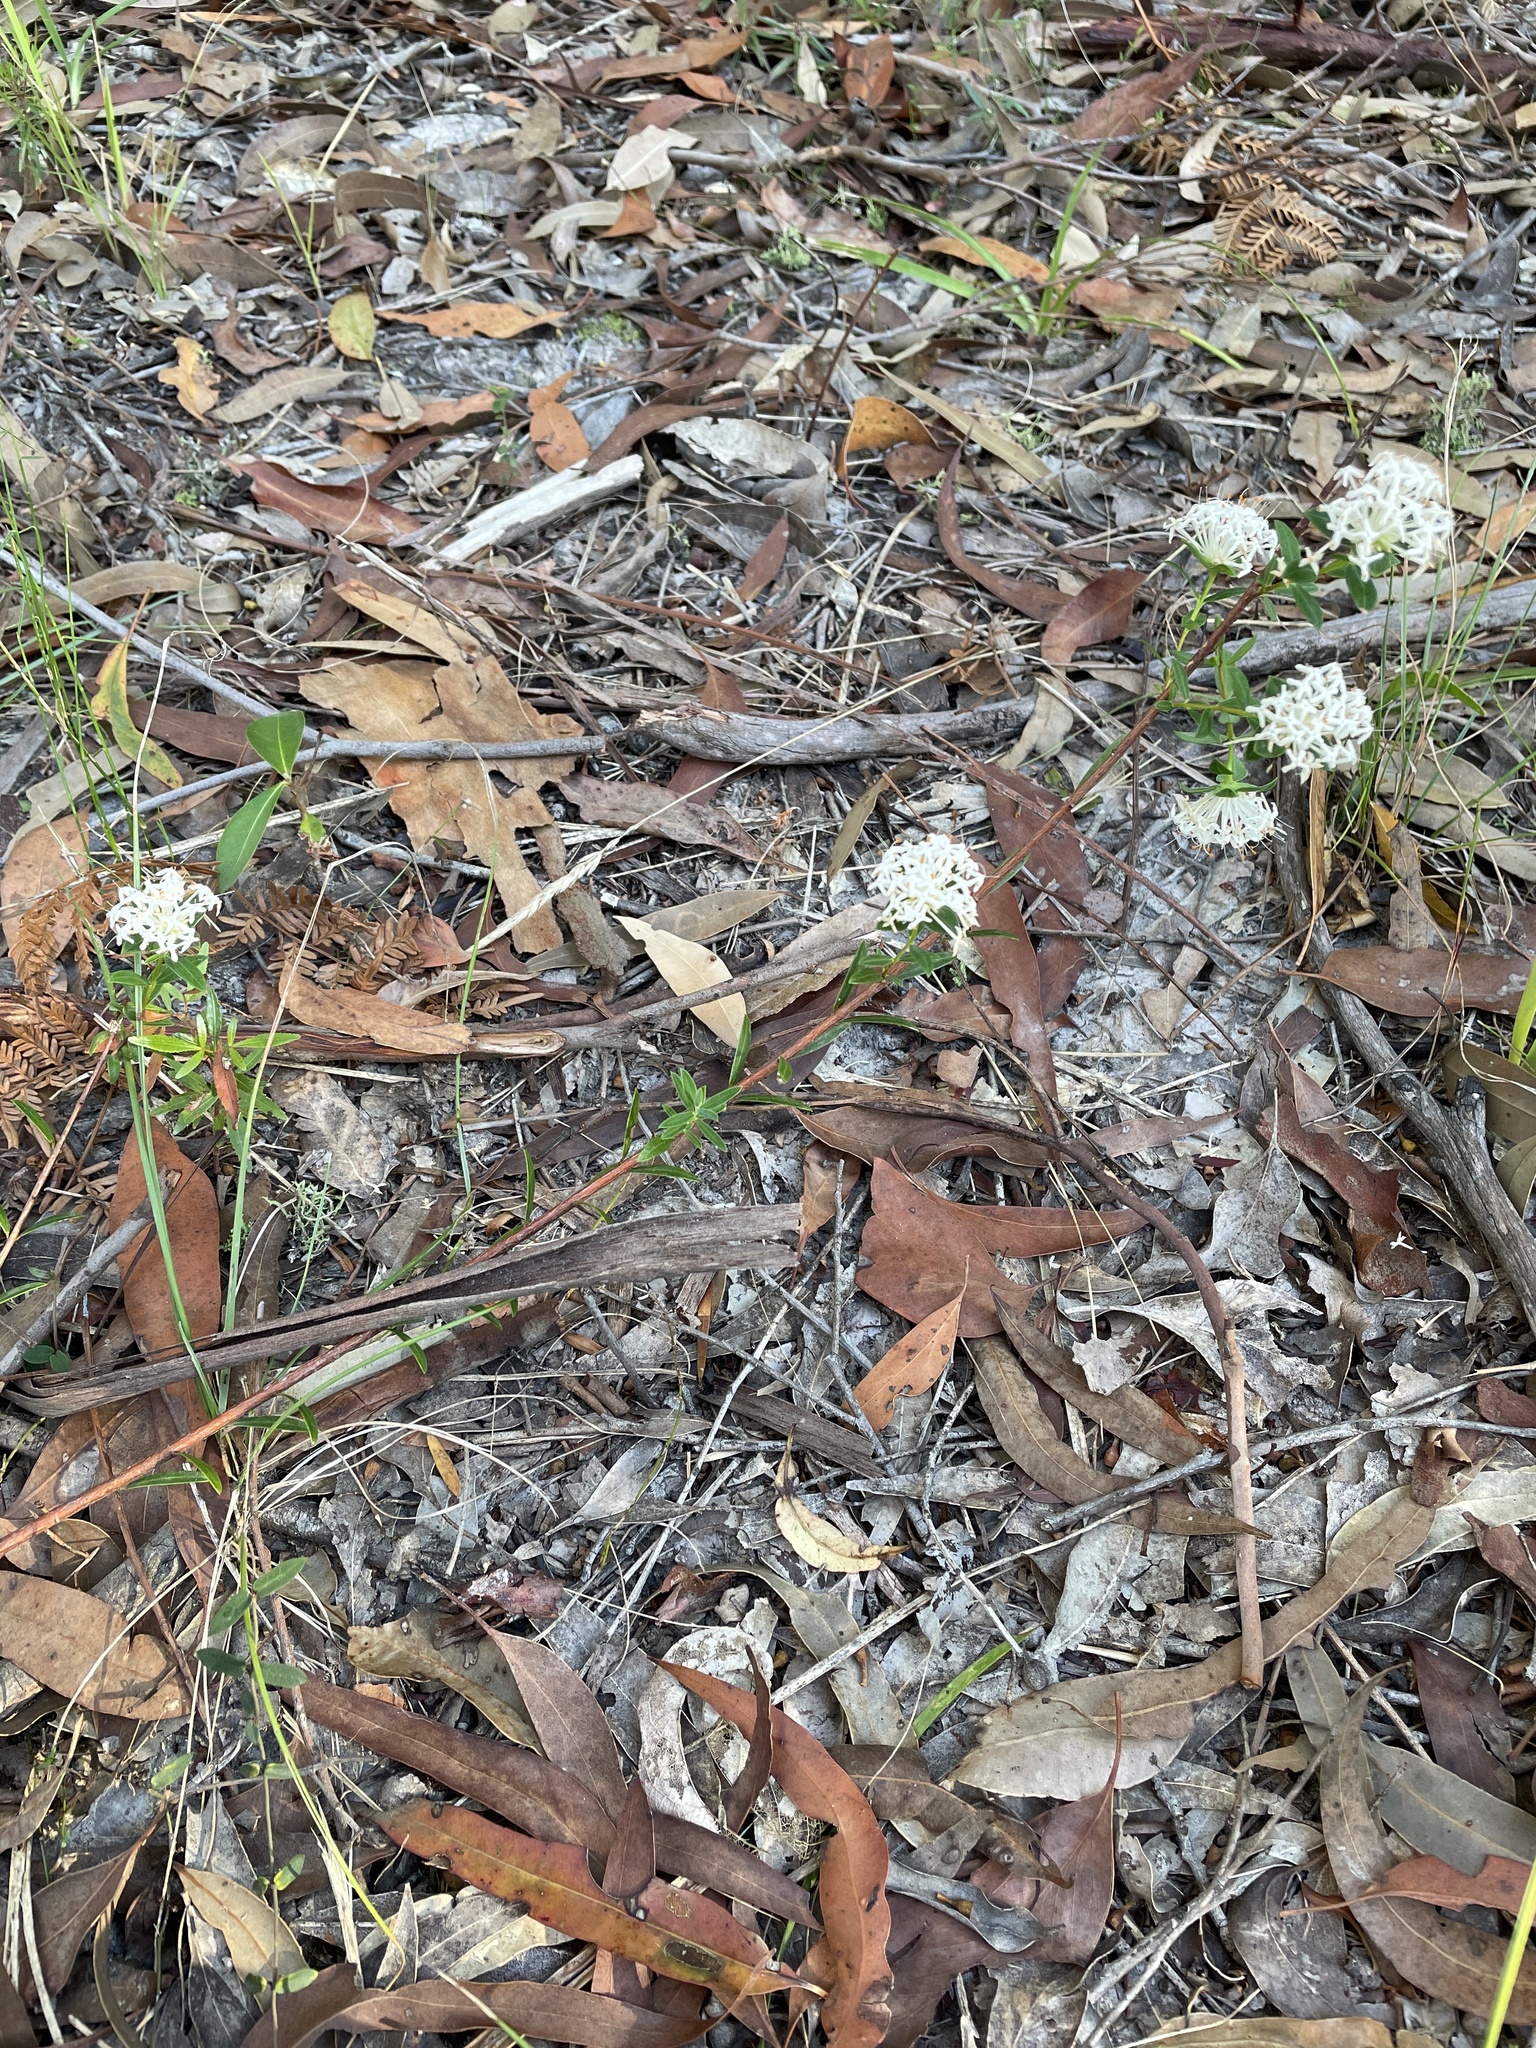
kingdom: Plantae
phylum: Tracheophyta
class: Magnoliopsida
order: Malvales
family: Thymelaeaceae
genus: Pimelea
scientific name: Pimelea linifolia
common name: Queen-of-the-bush
